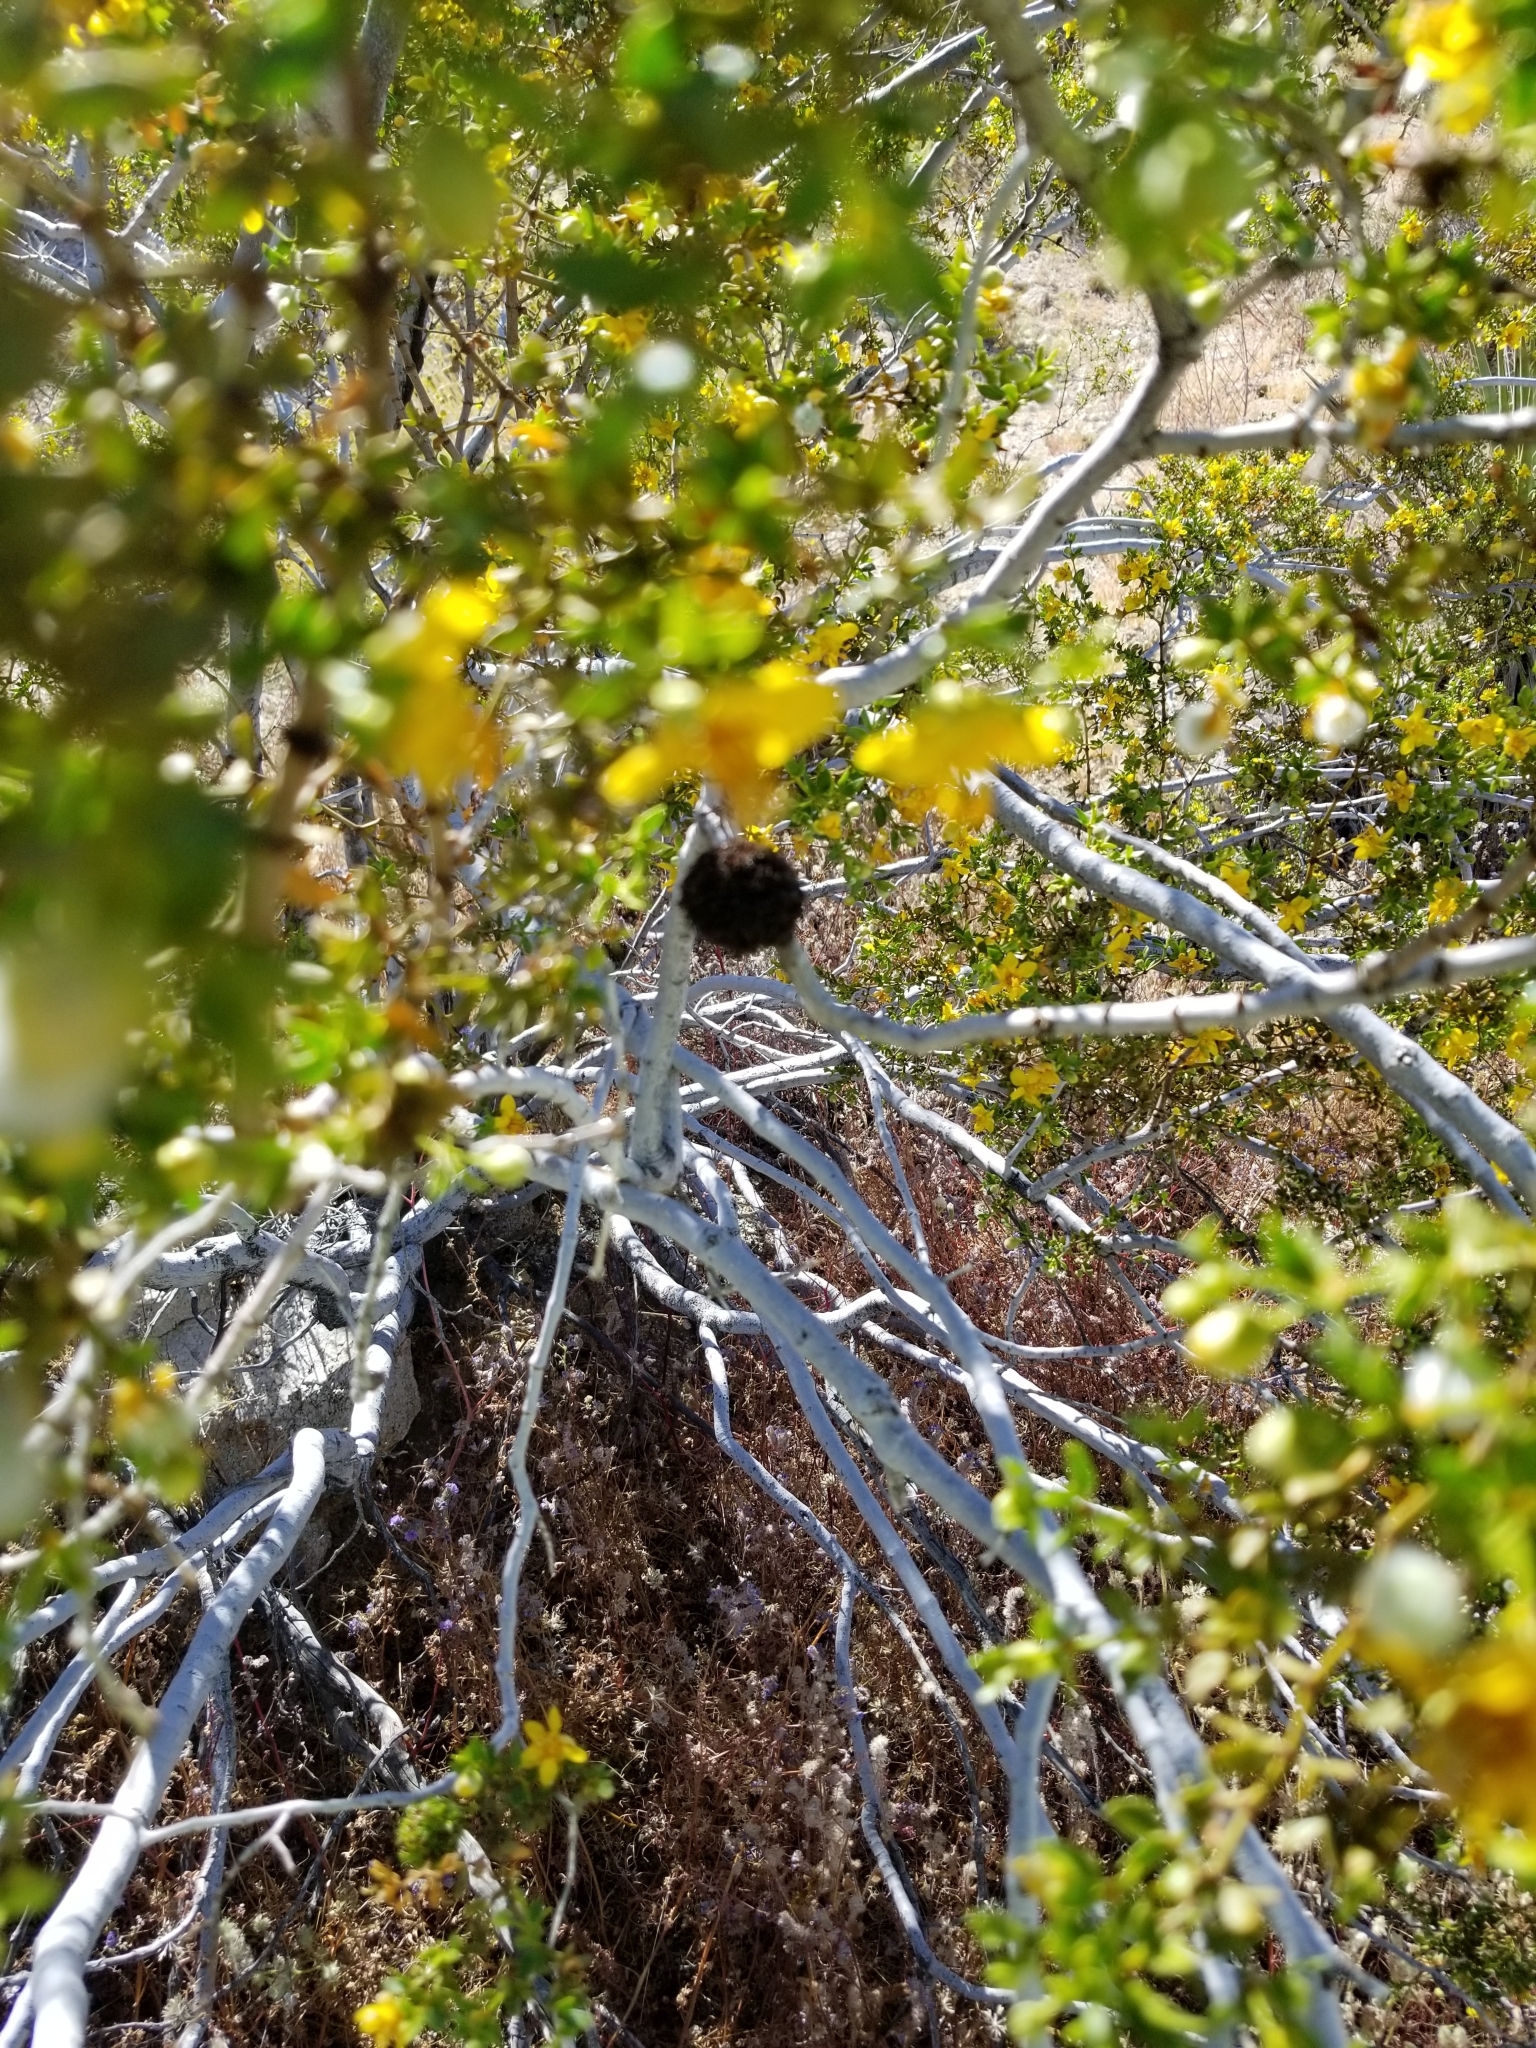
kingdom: Animalia
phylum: Arthropoda
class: Insecta
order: Diptera
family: Cecidomyiidae
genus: Asphondylia
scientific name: Asphondylia auripila
